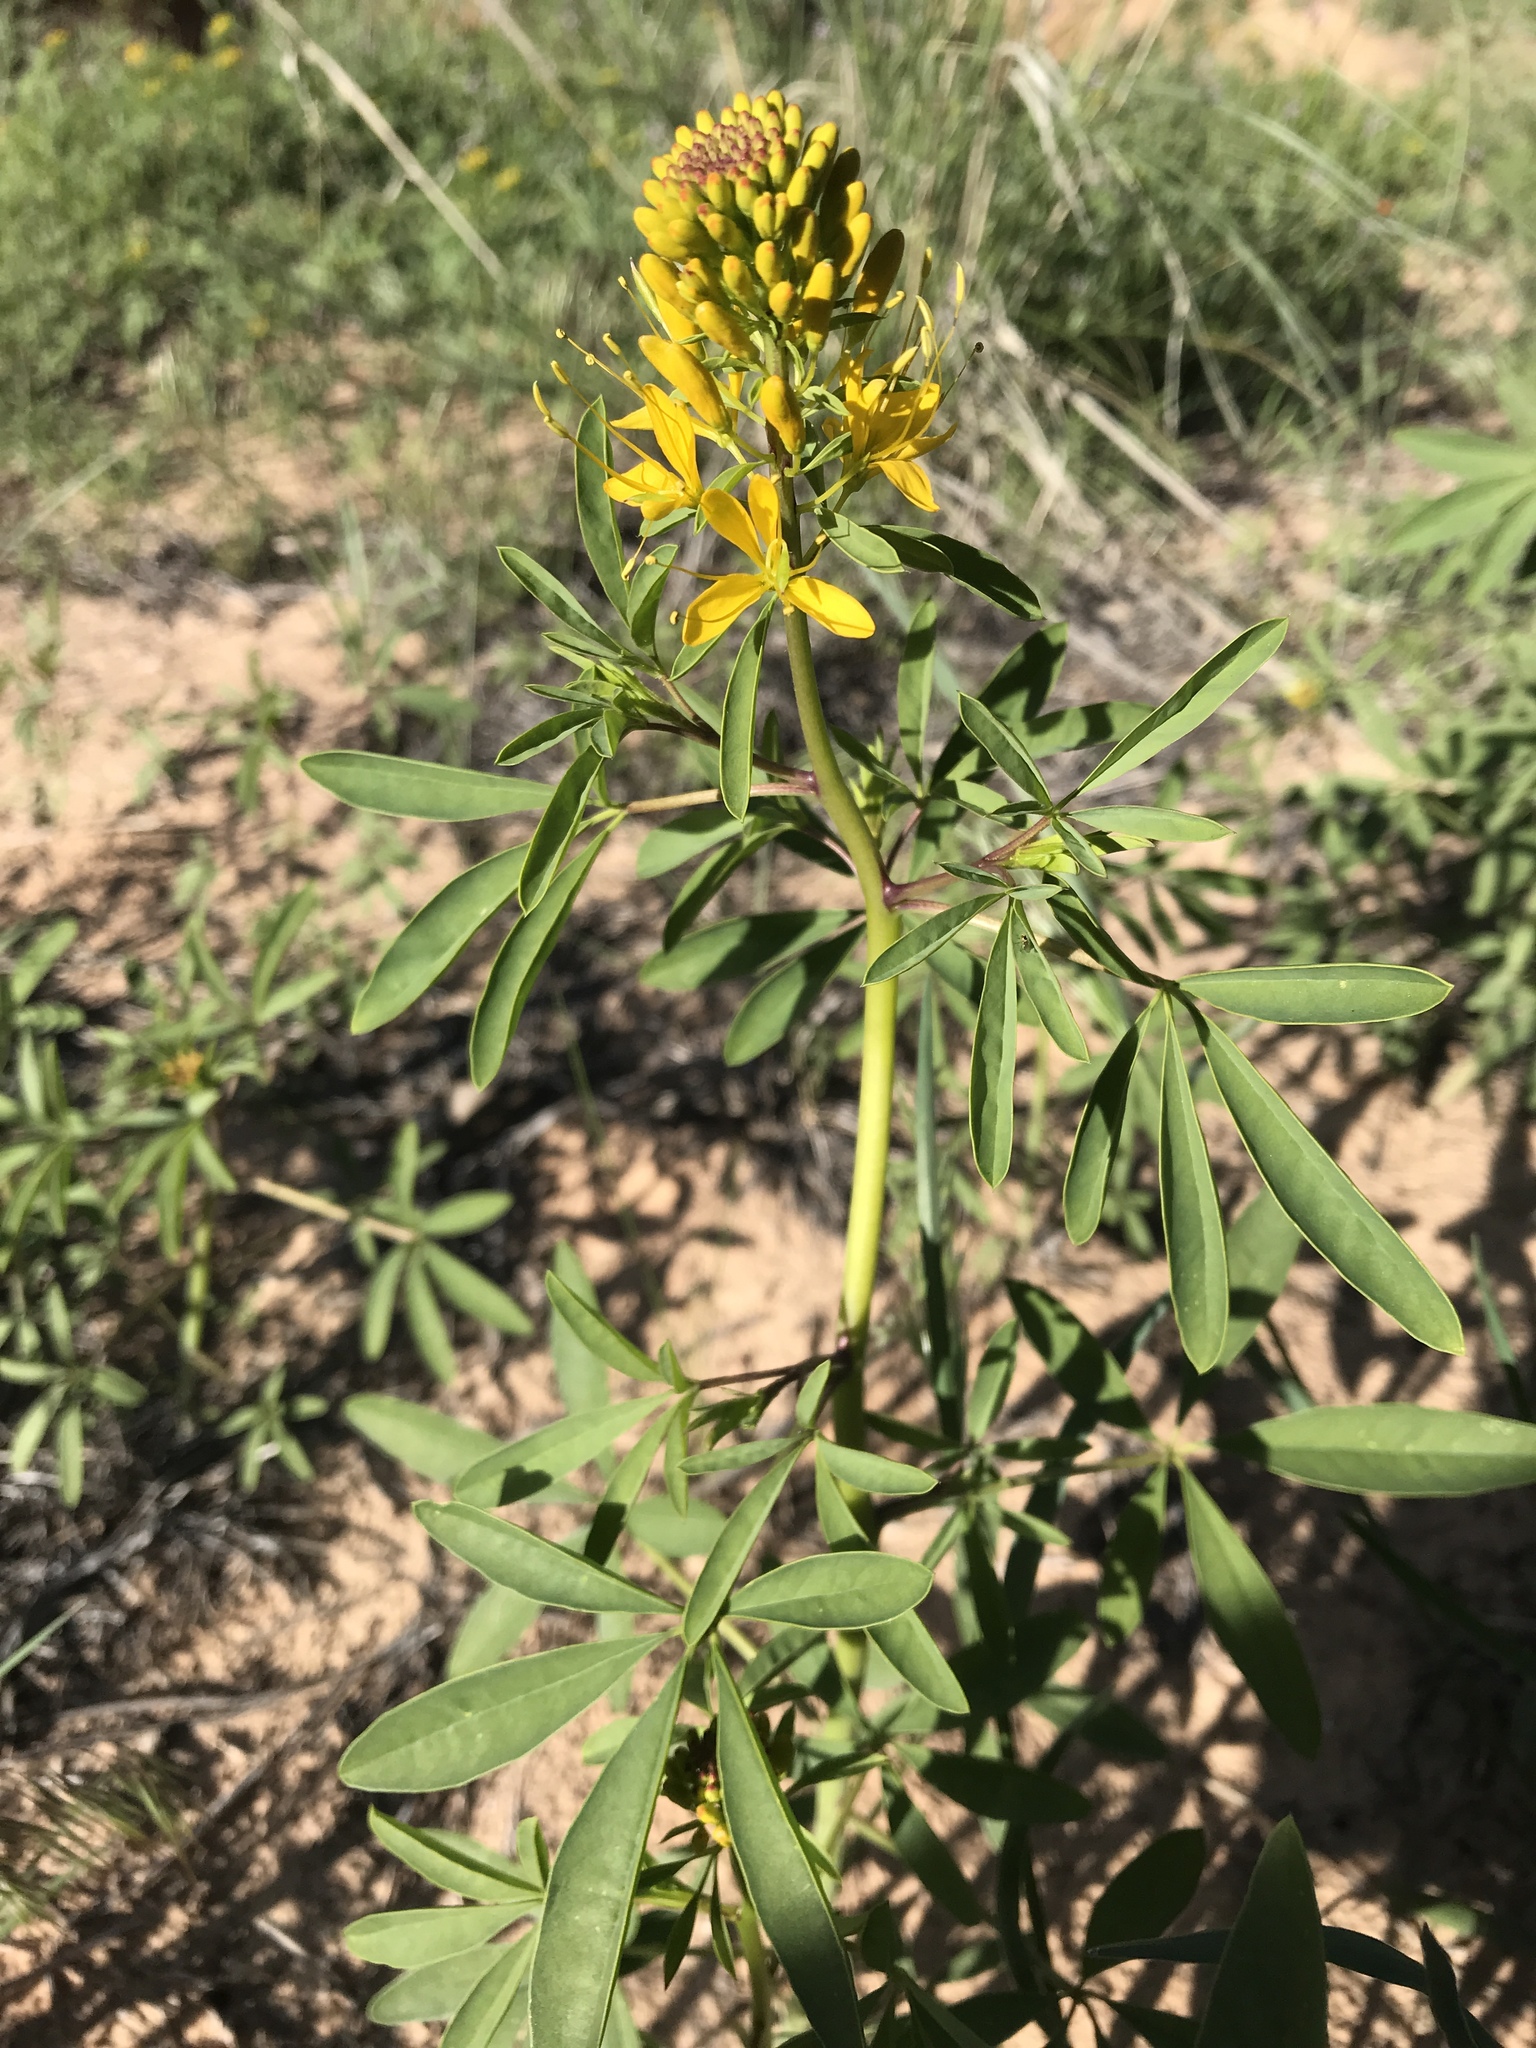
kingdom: Plantae
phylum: Tracheophyta
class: Magnoliopsida
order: Brassicales
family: Cleomaceae
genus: Cleomella
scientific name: Cleomella lutea
